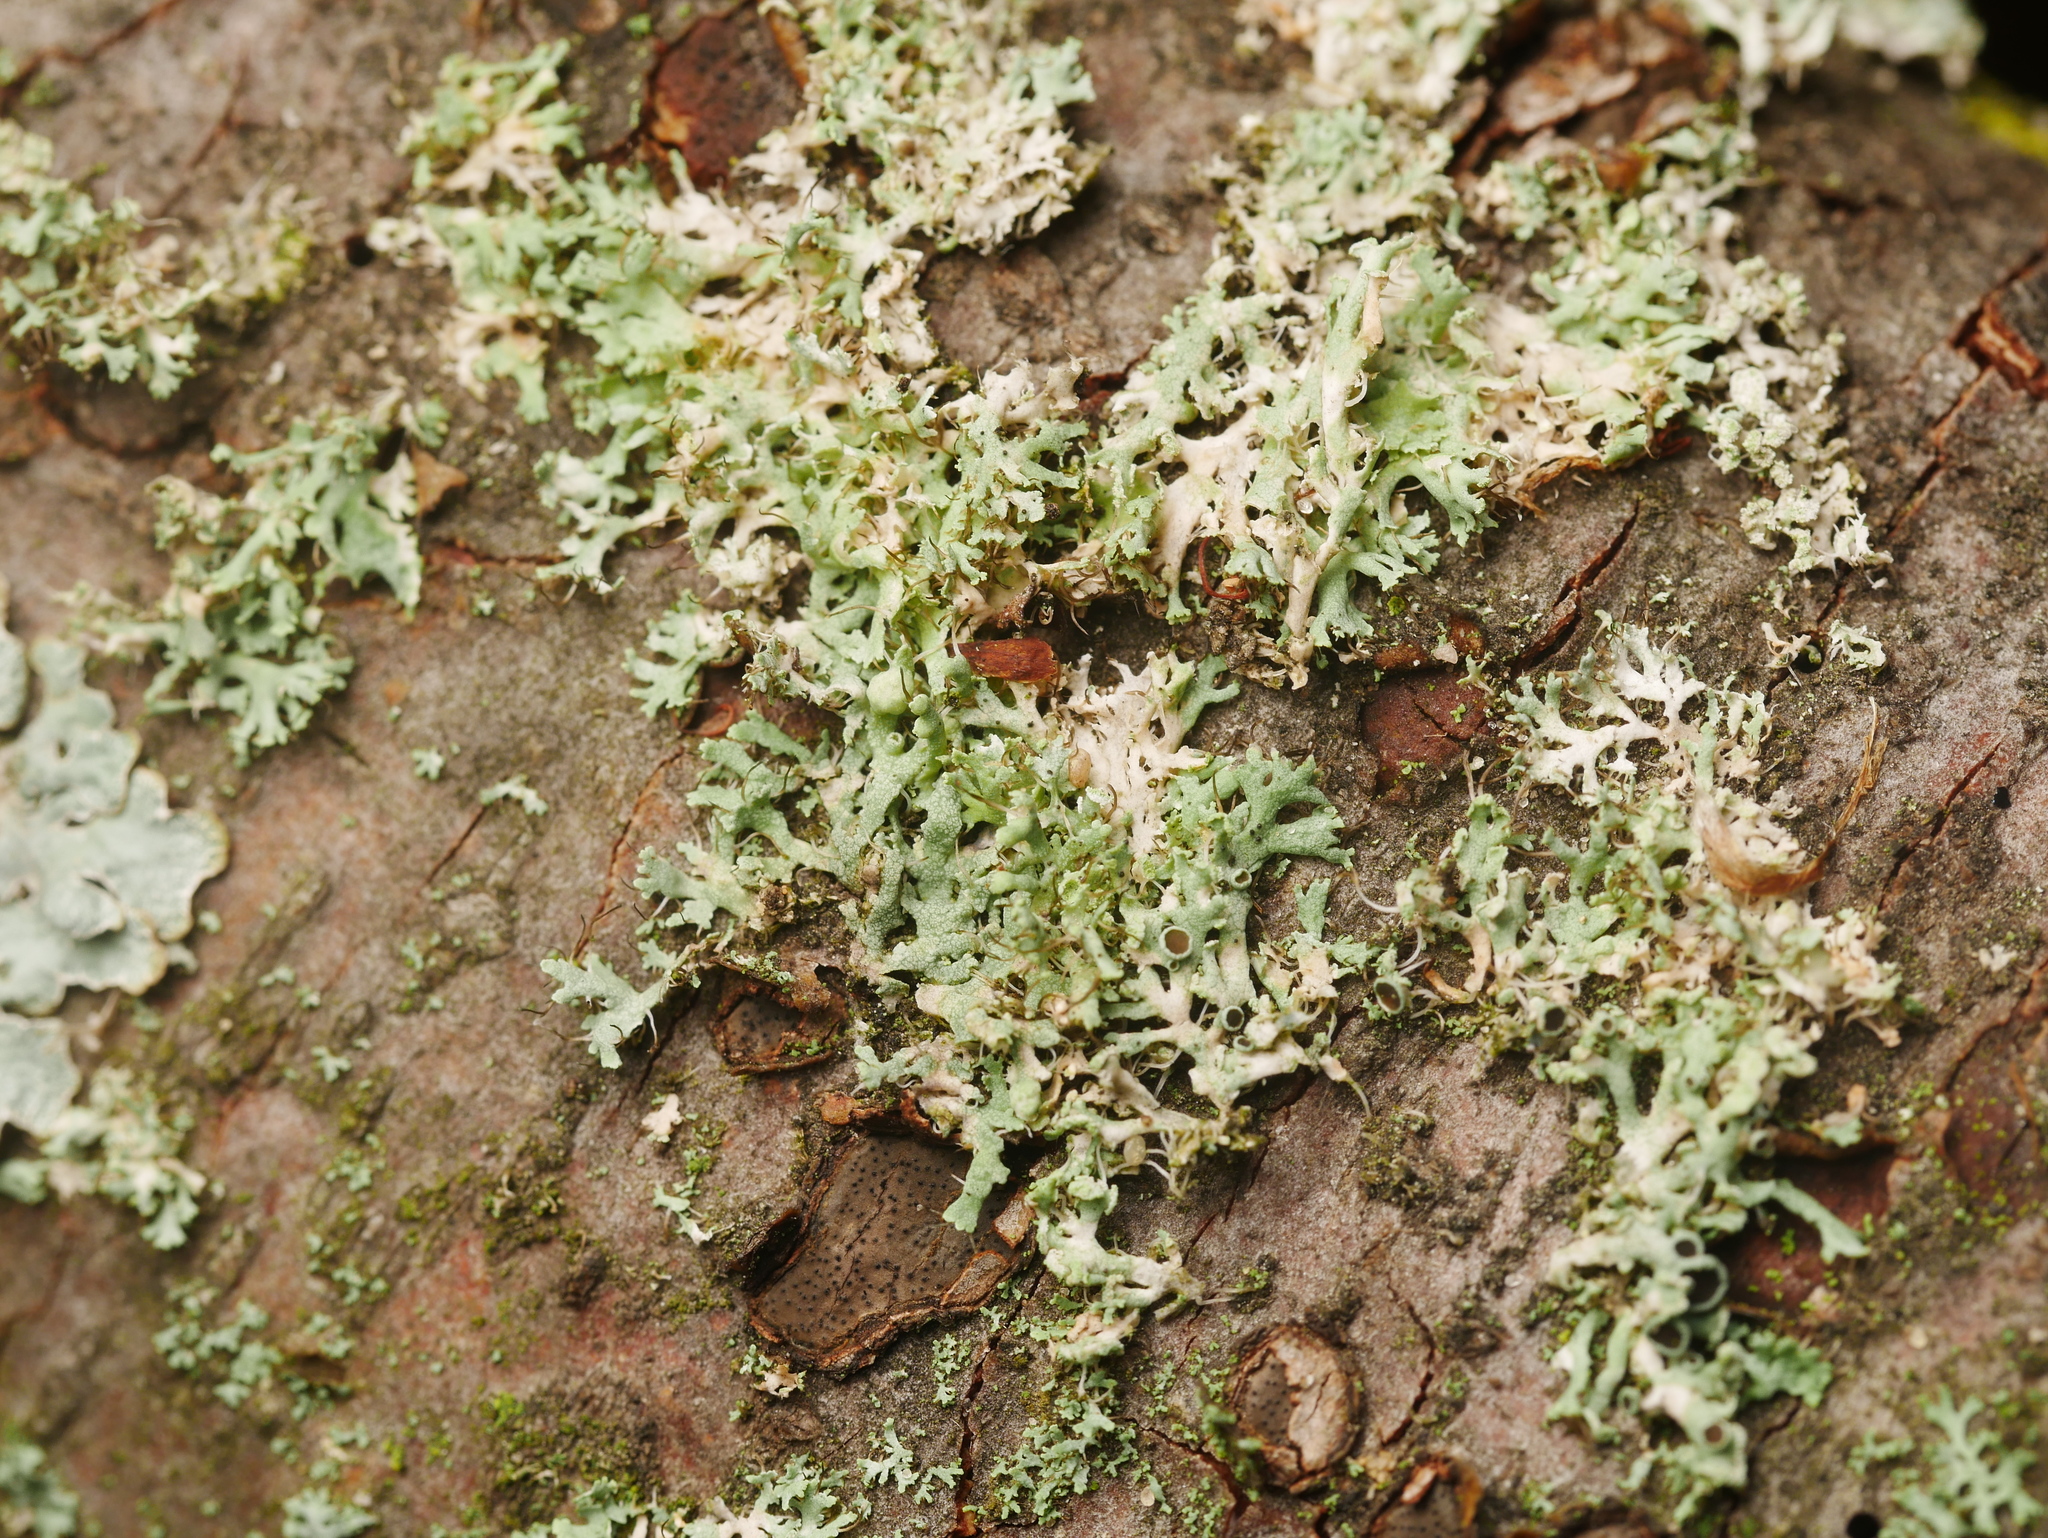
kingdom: Fungi
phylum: Ascomycota
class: Lecanoromycetes
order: Caliciales
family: Physciaceae
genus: Physcia
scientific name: Physcia tenella
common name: Fringed rosette lichen
